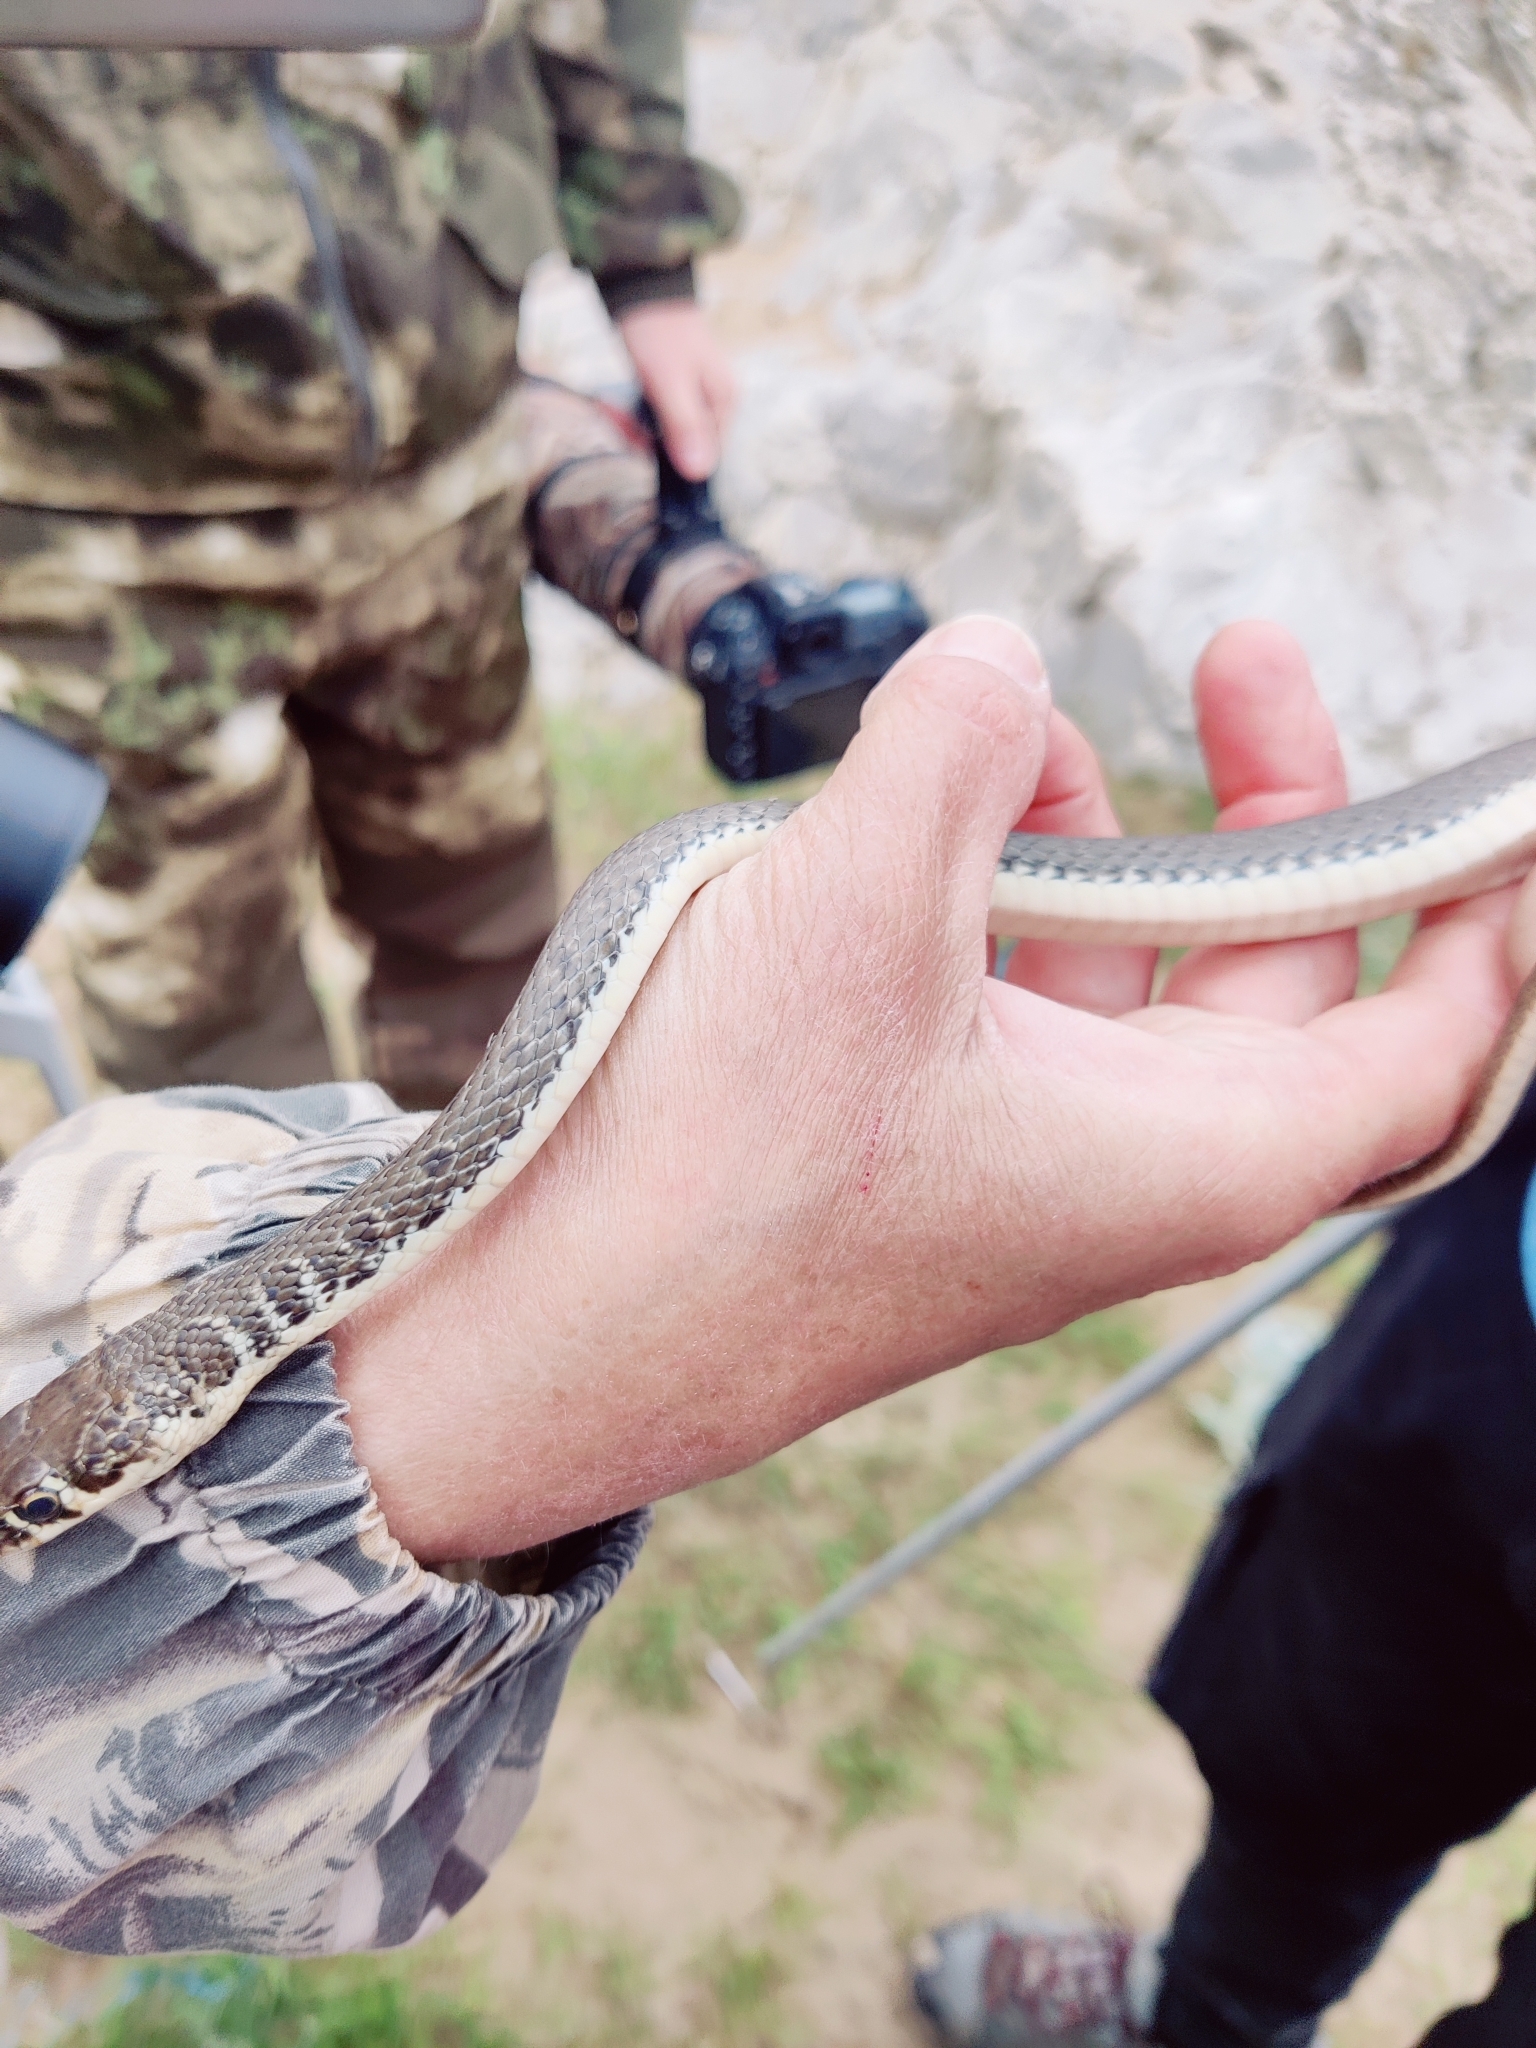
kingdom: Animalia
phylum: Chordata
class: Squamata
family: Colubridae
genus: Platyceps
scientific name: Platyceps najadum
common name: Dahl's whip snake
